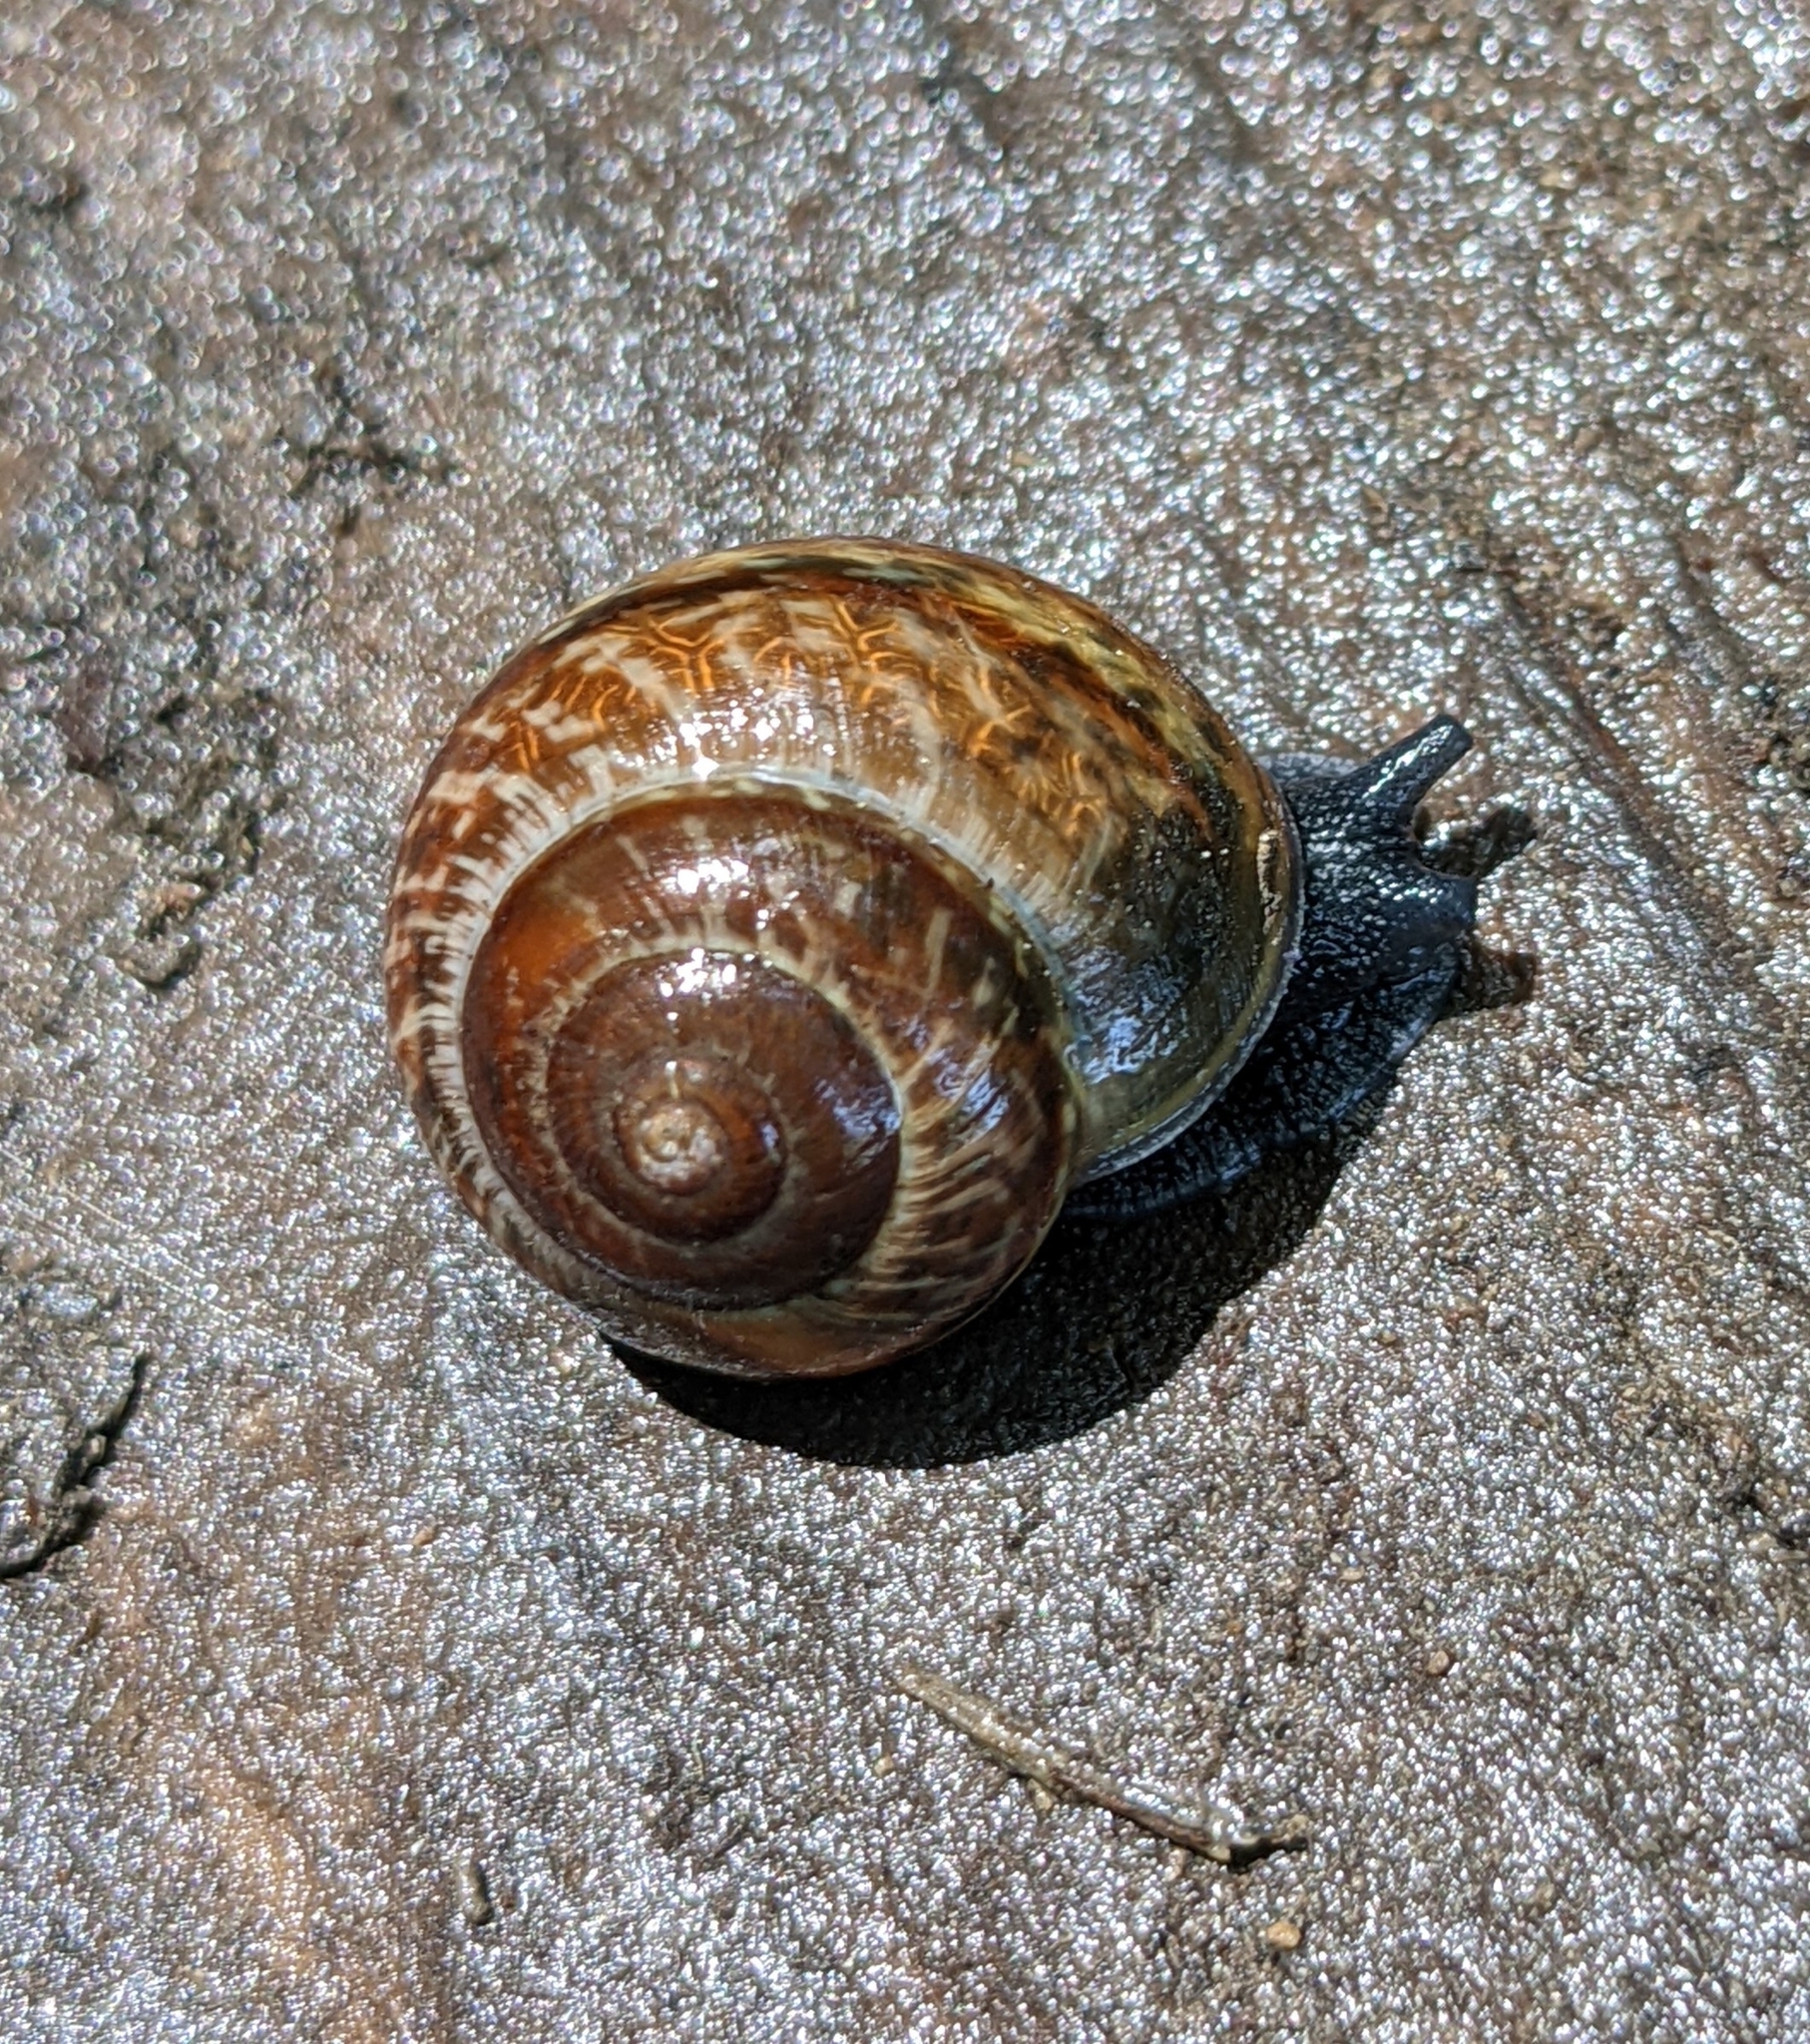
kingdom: Animalia
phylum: Mollusca
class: Gastropoda
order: Stylommatophora
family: Helicidae
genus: Arianta
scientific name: Arianta arbustorum
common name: Copse snail
